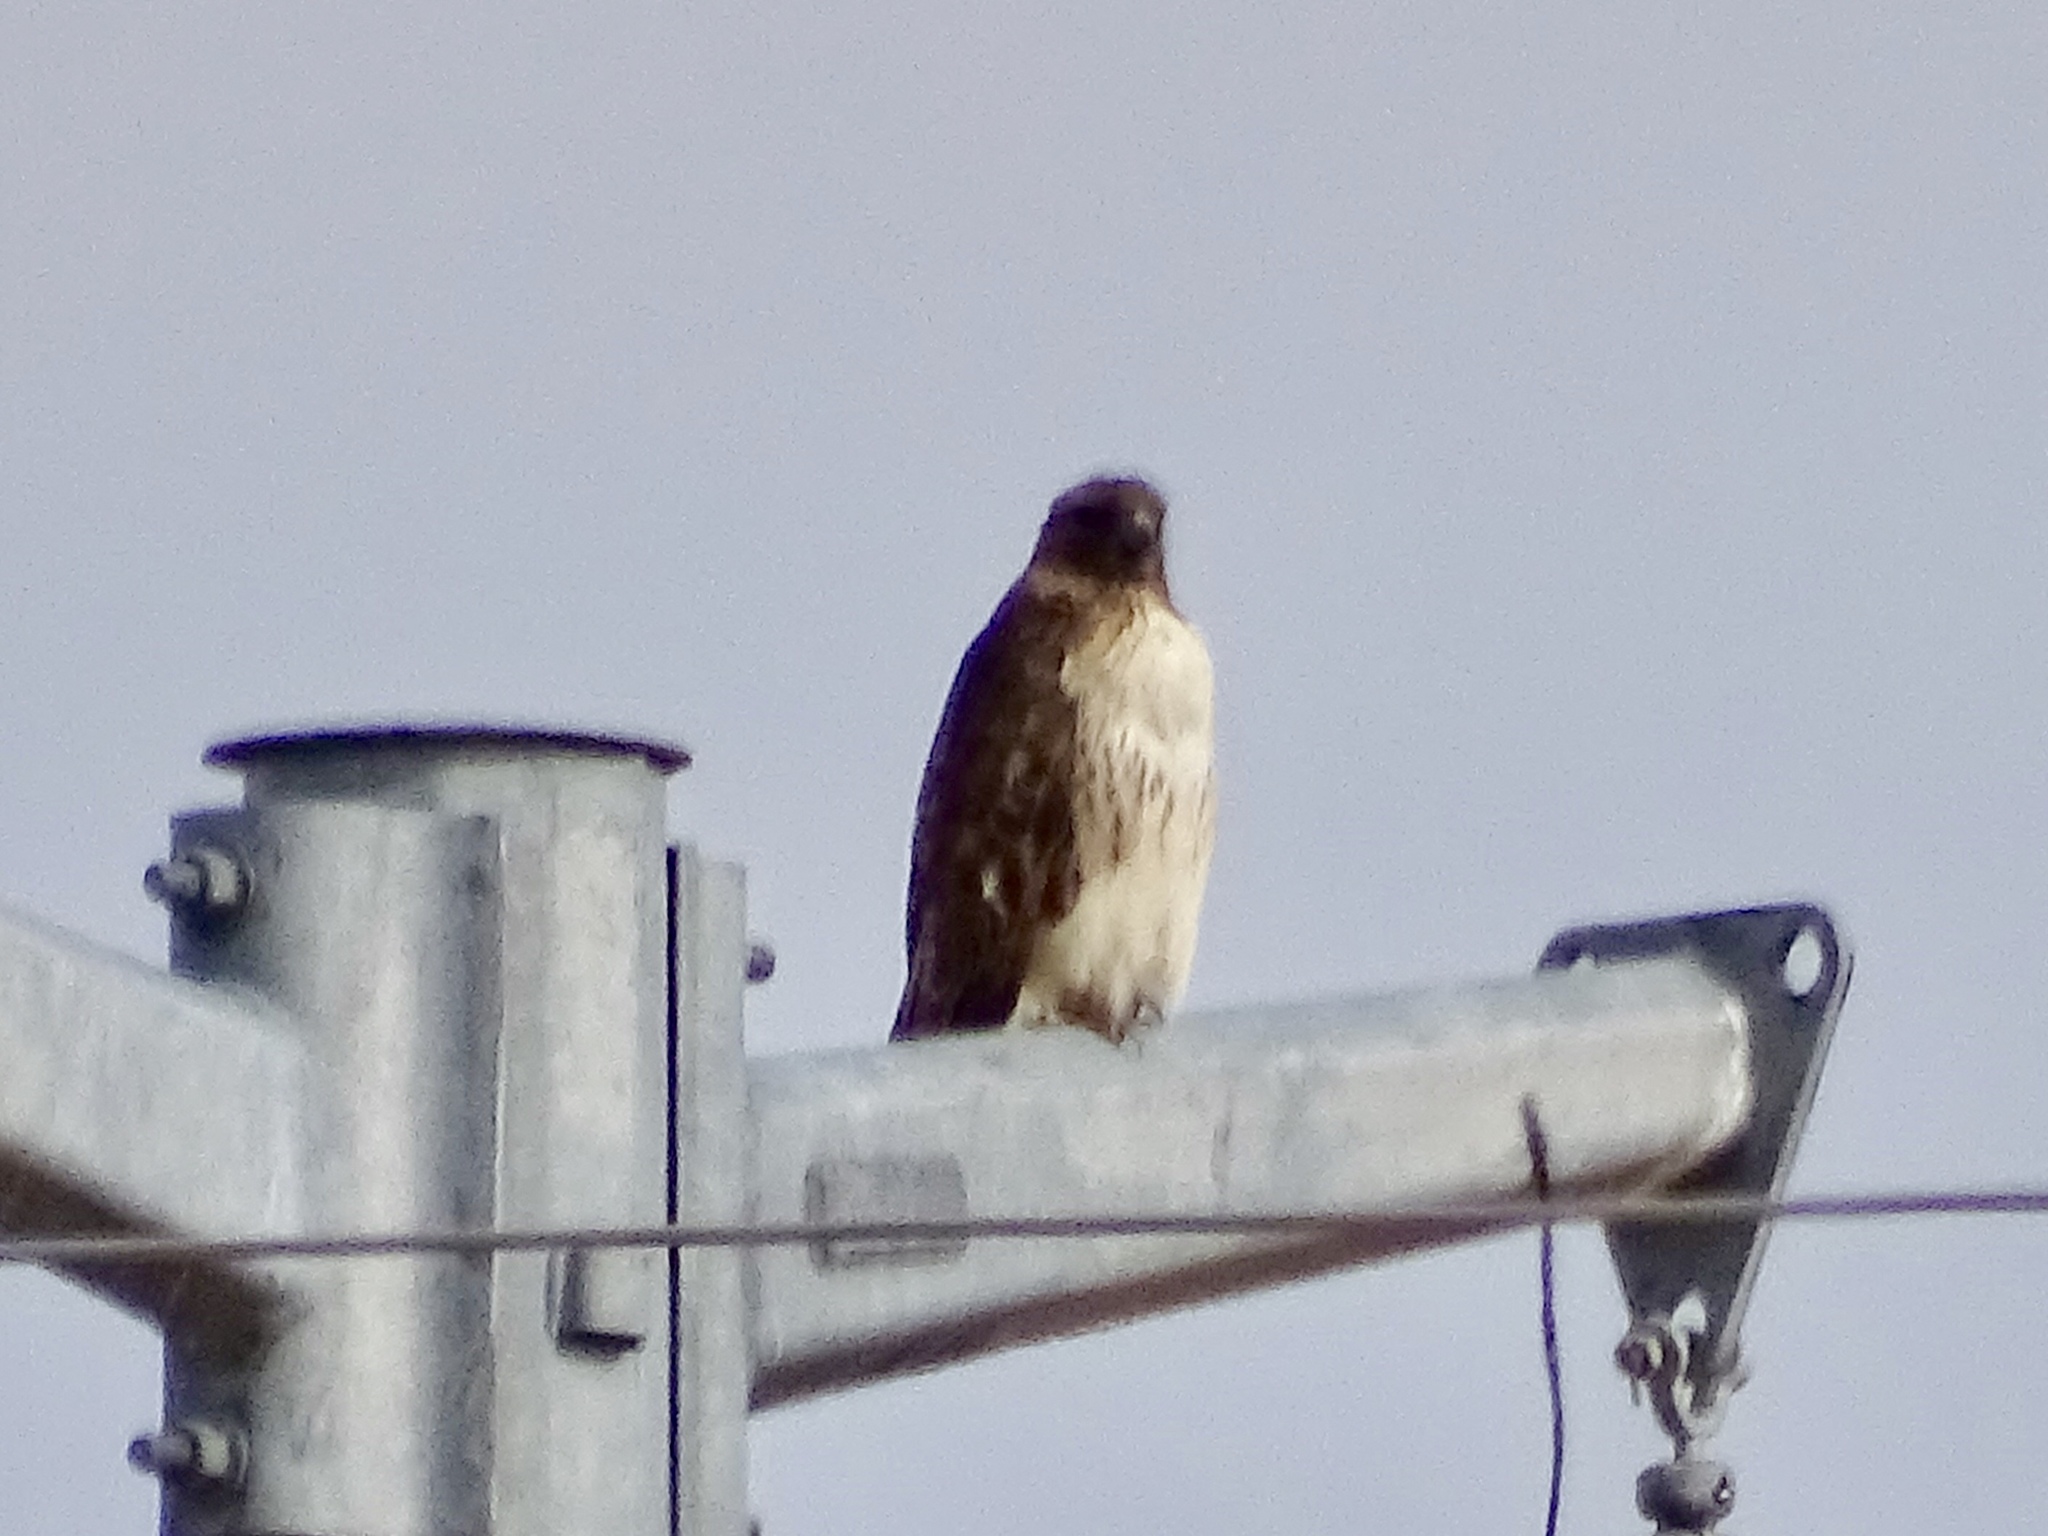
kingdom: Animalia
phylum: Chordata
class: Aves
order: Accipitriformes
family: Accipitridae
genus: Buteo
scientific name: Buteo jamaicensis
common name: Red-tailed hawk
